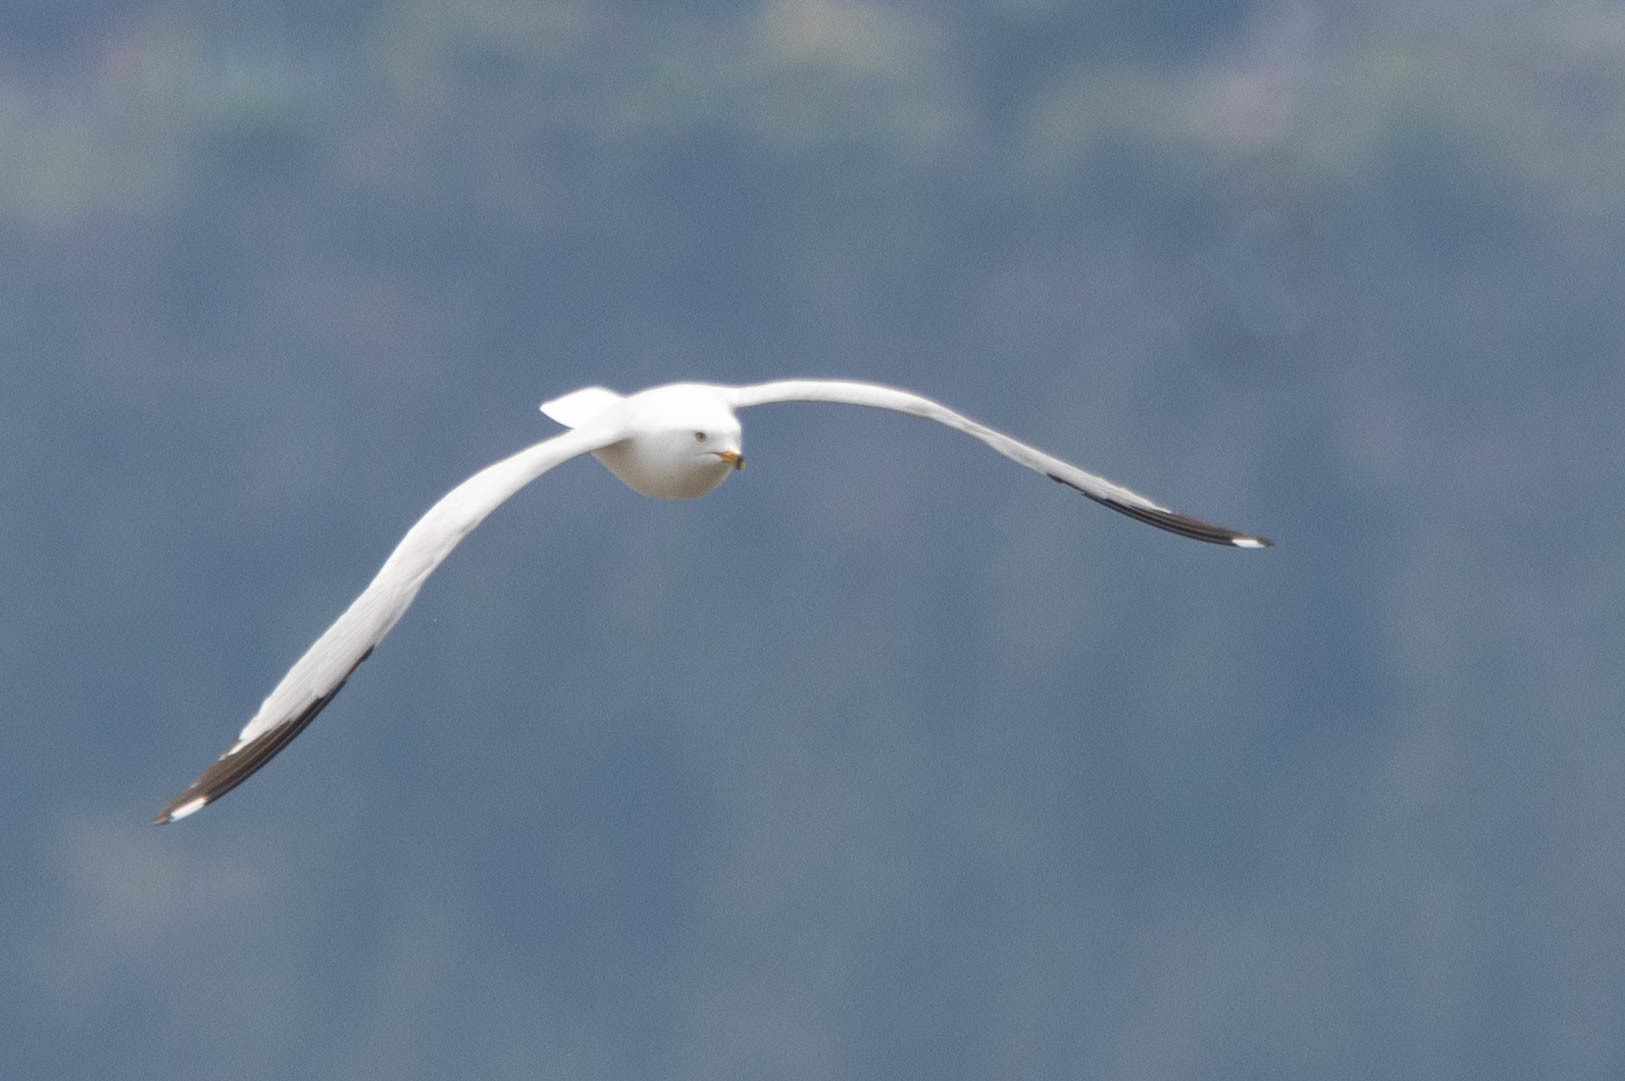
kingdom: Animalia
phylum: Chordata
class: Aves
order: Charadriiformes
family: Laridae
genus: Larus
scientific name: Larus delawarensis
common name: Ring-billed gull
